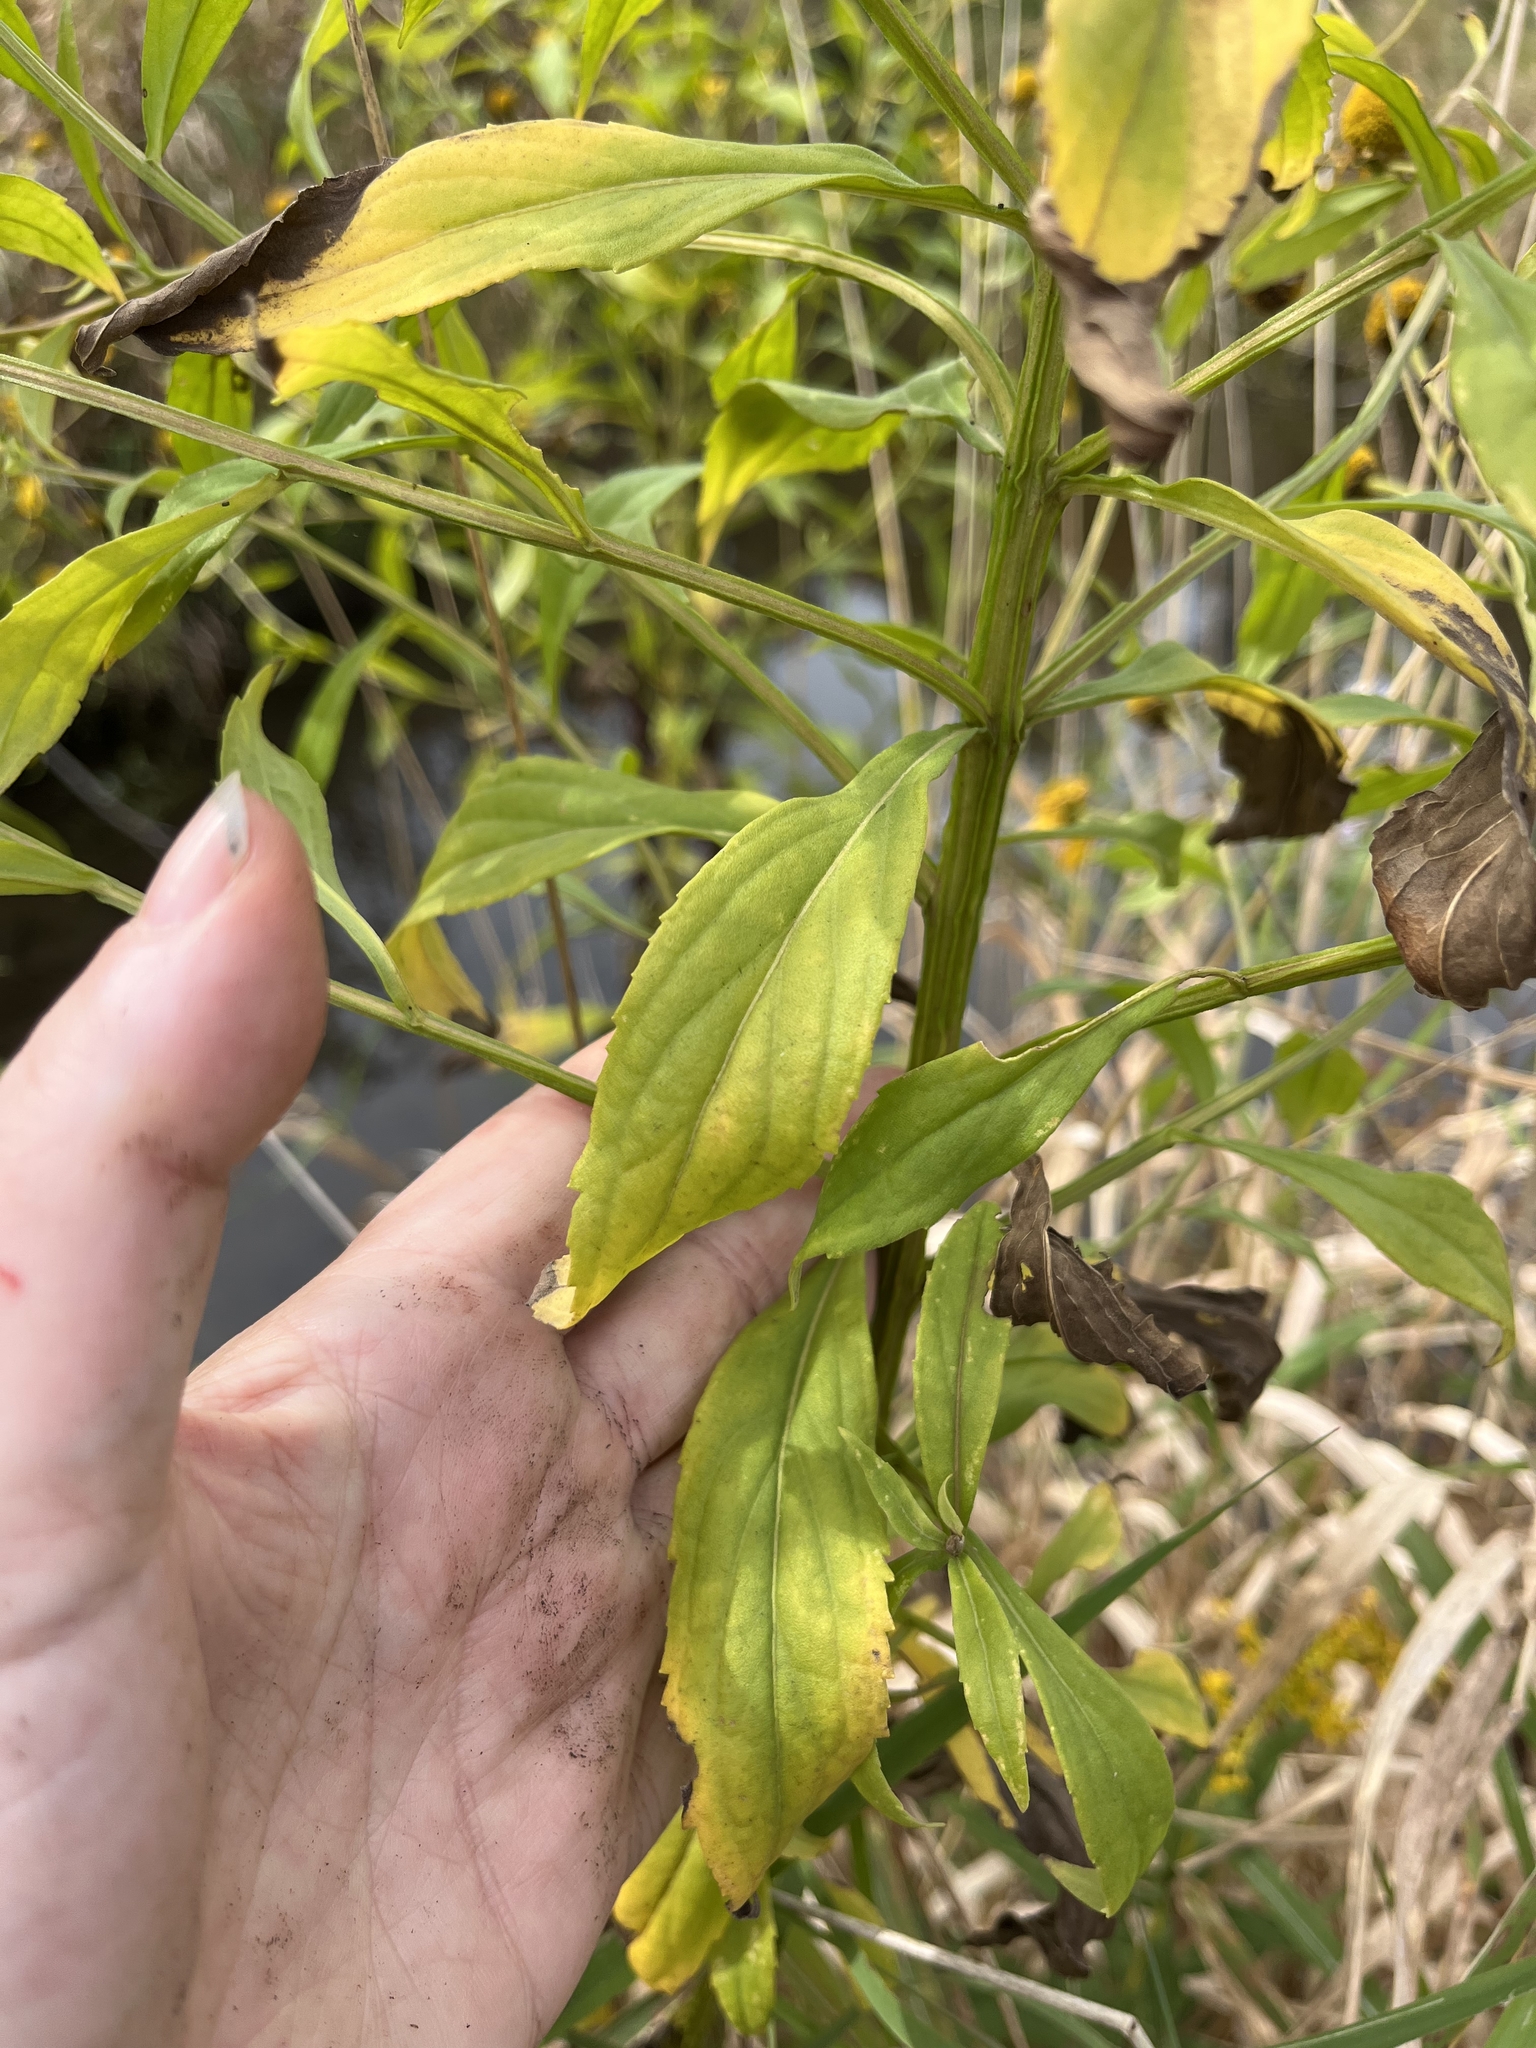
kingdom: Plantae
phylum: Tracheophyta
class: Magnoliopsida
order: Asterales
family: Asteraceae
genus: Helenium
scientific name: Helenium autumnale
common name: Sneezeweed
